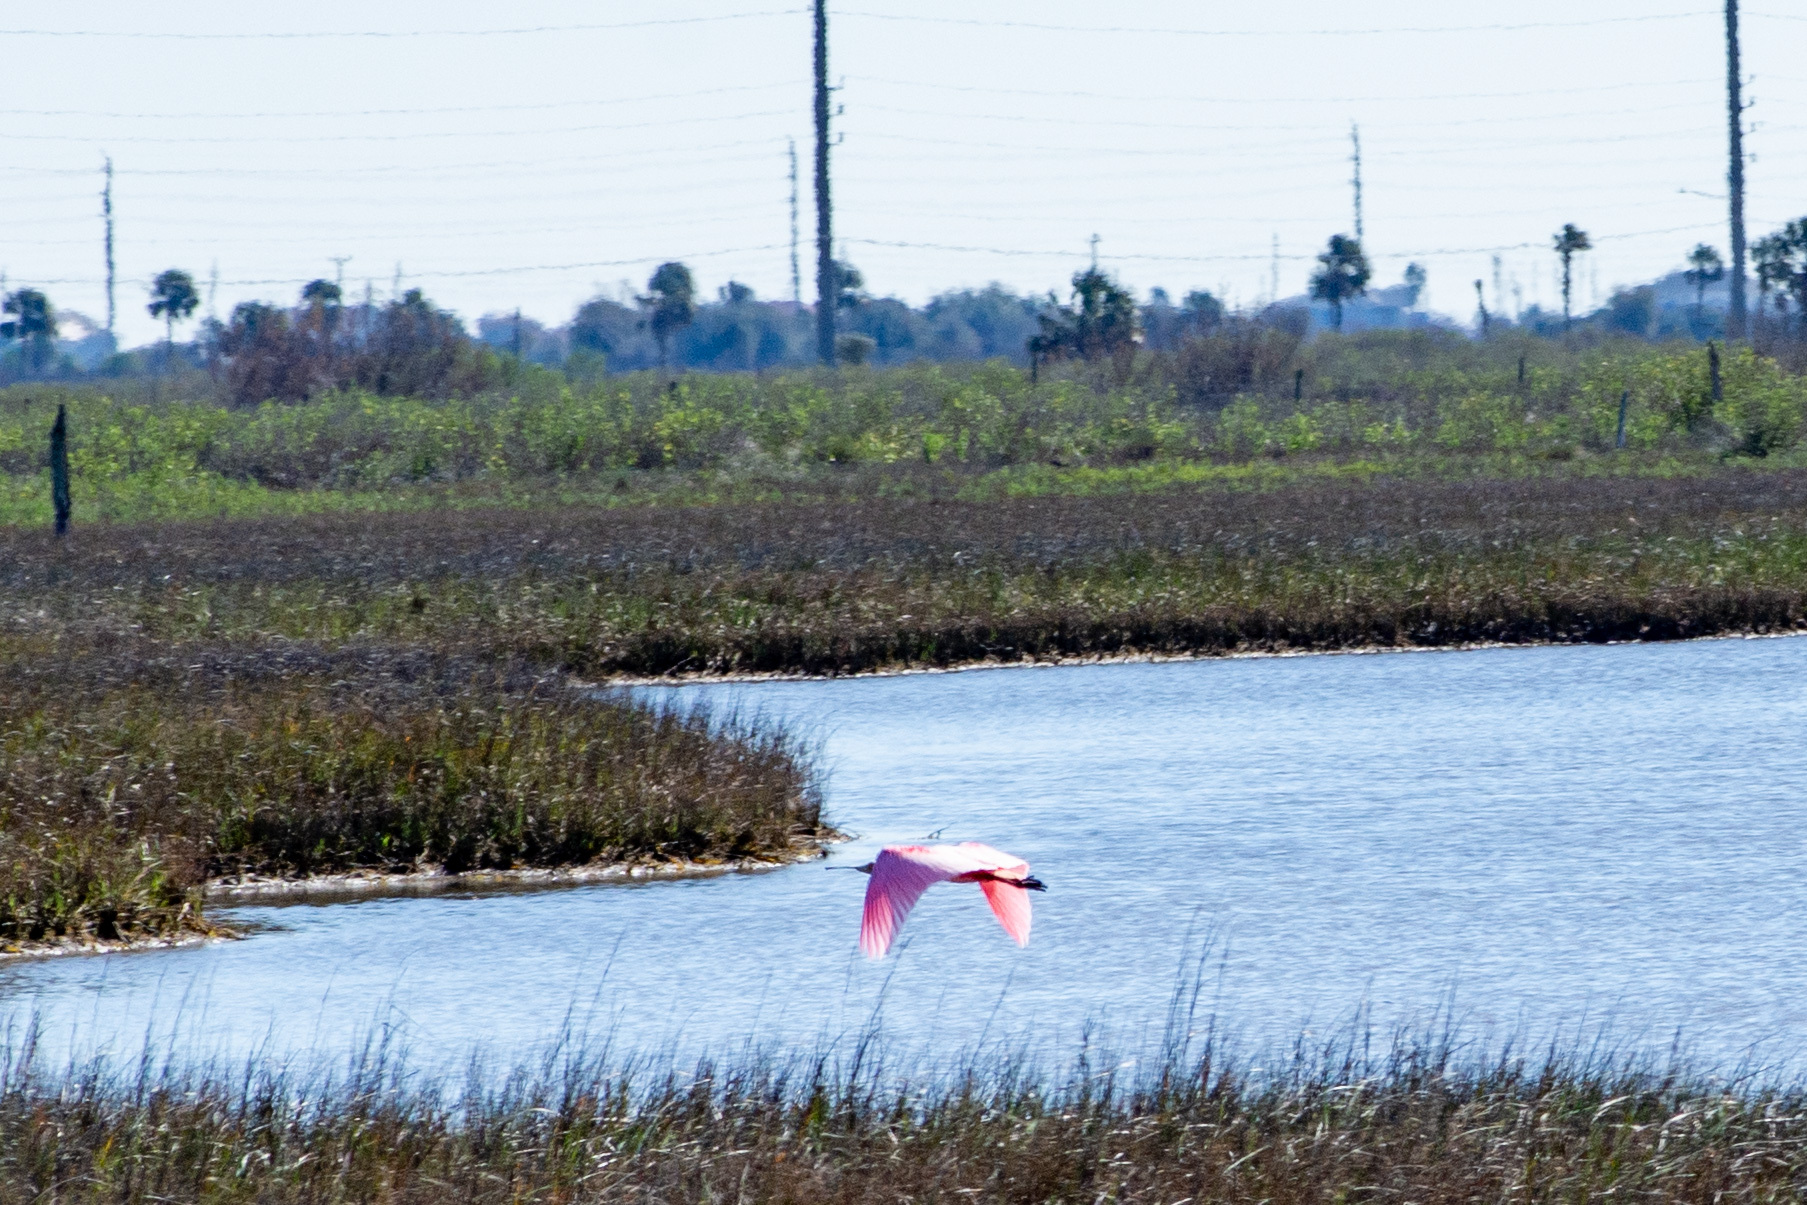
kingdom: Animalia
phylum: Chordata
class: Aves
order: Pelecaniformes
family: Threskiornithidae
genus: Platalea
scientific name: Platalea ajaja
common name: Roseate spoonbill
